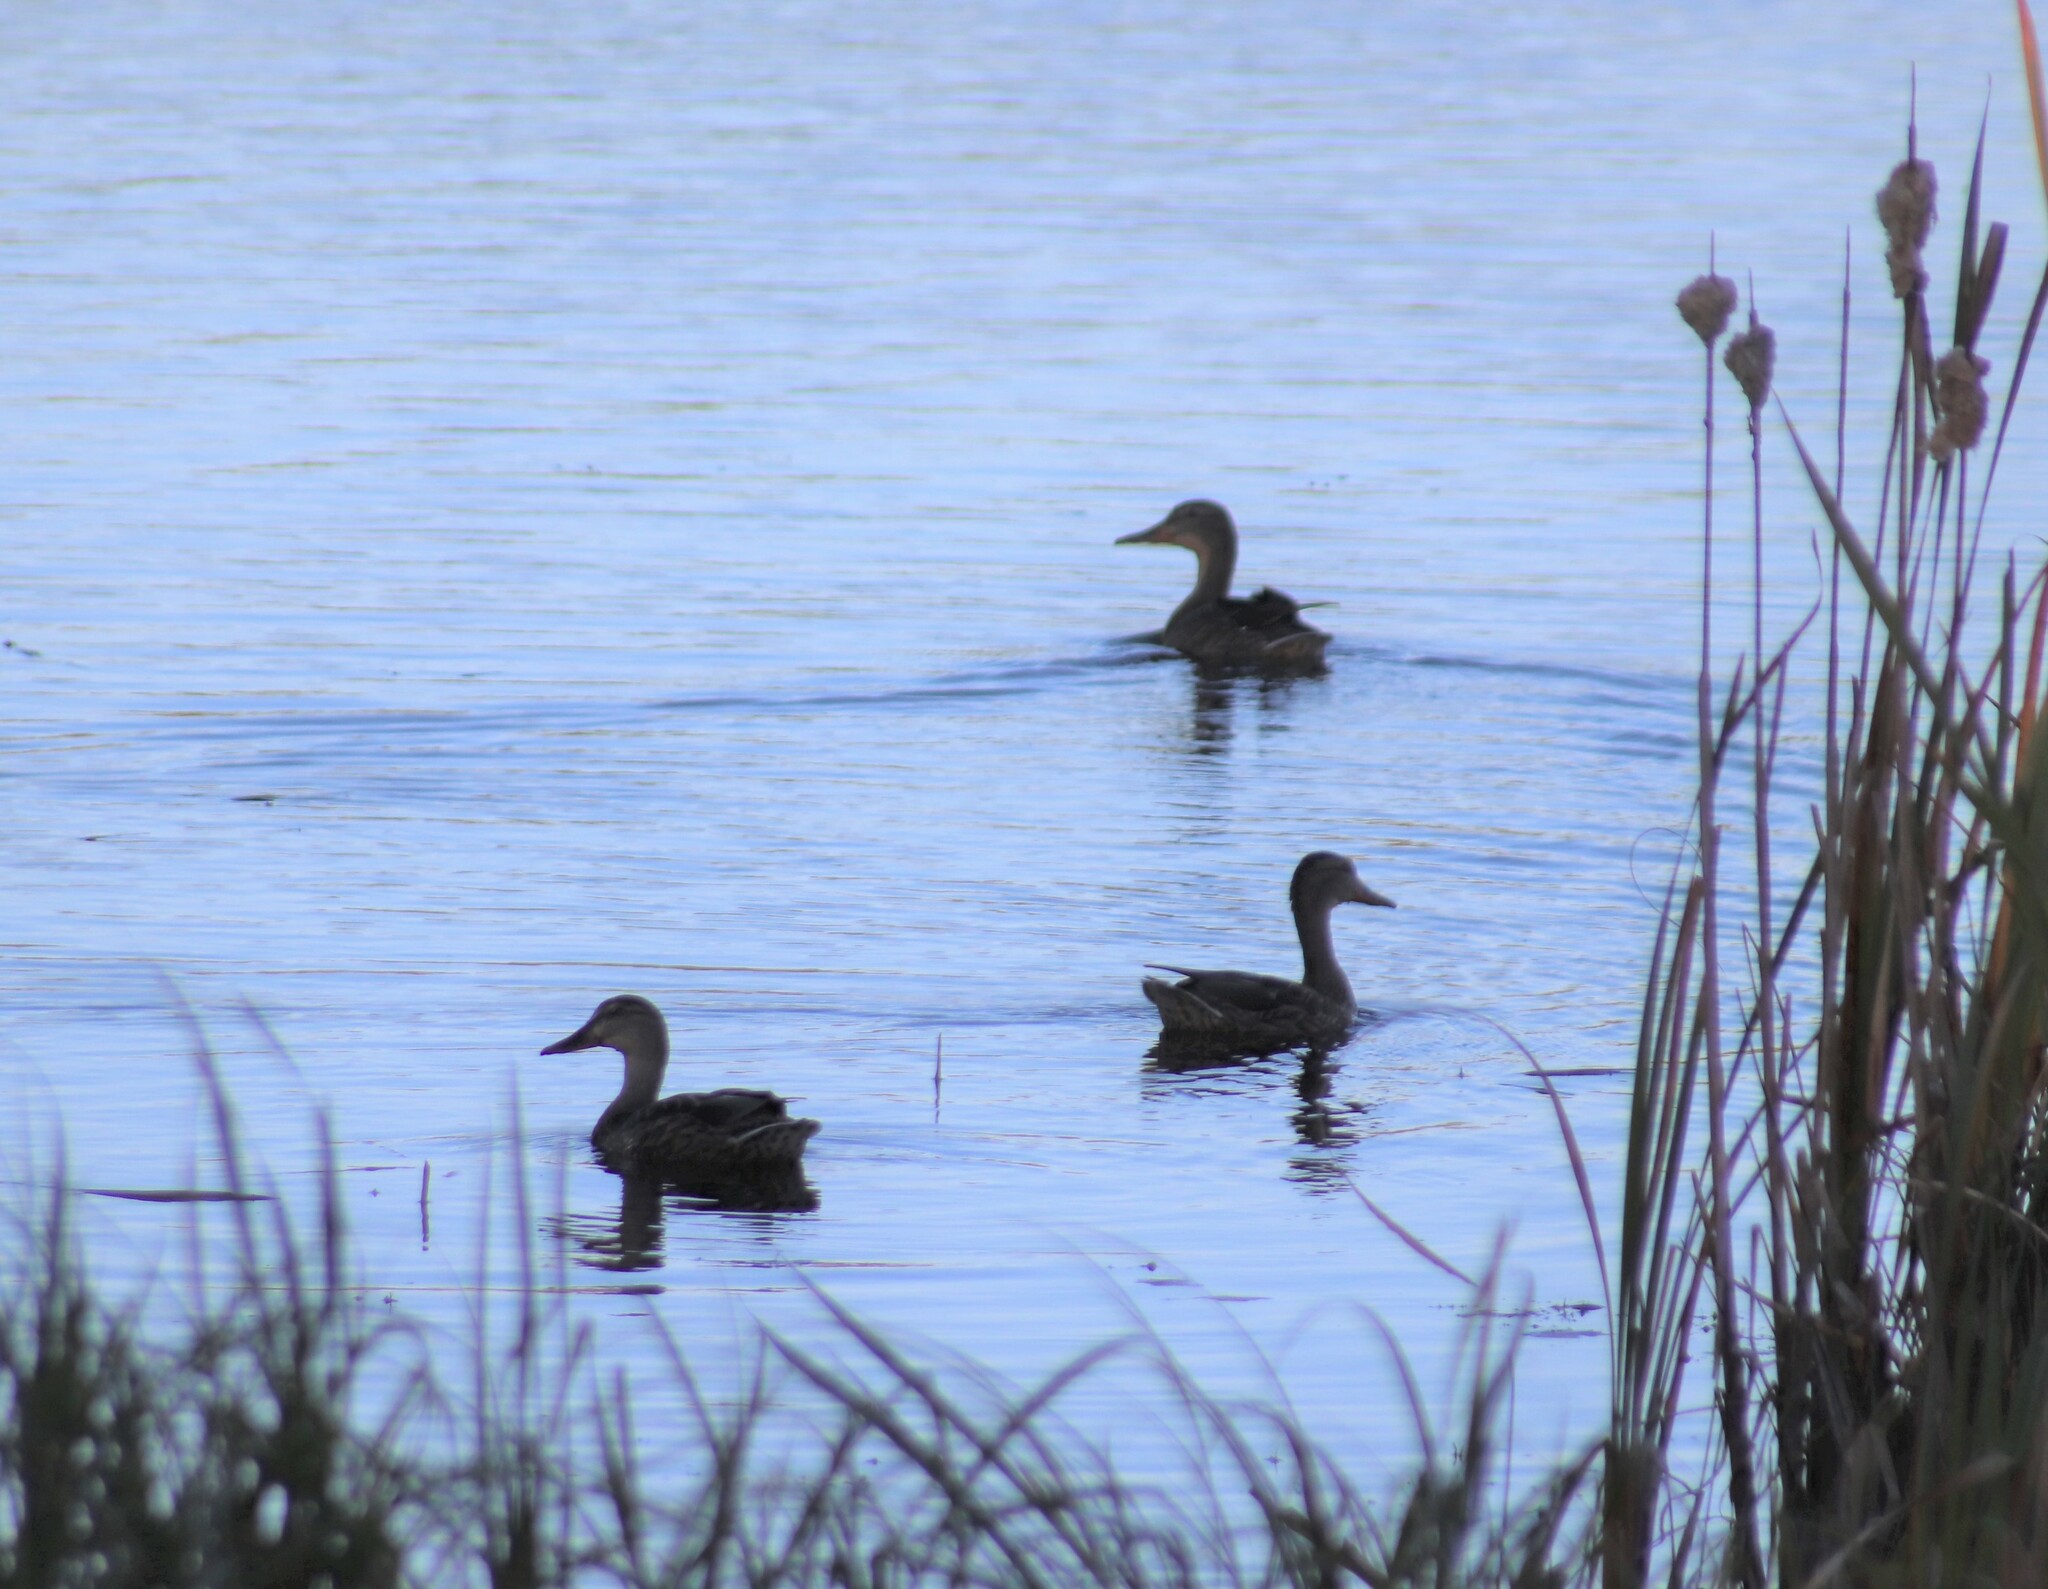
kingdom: Animalia
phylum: Chordata
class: Aves
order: Anseriformes
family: Anatidae
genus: Anas
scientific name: Anas platyrhynchos
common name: Mallard
